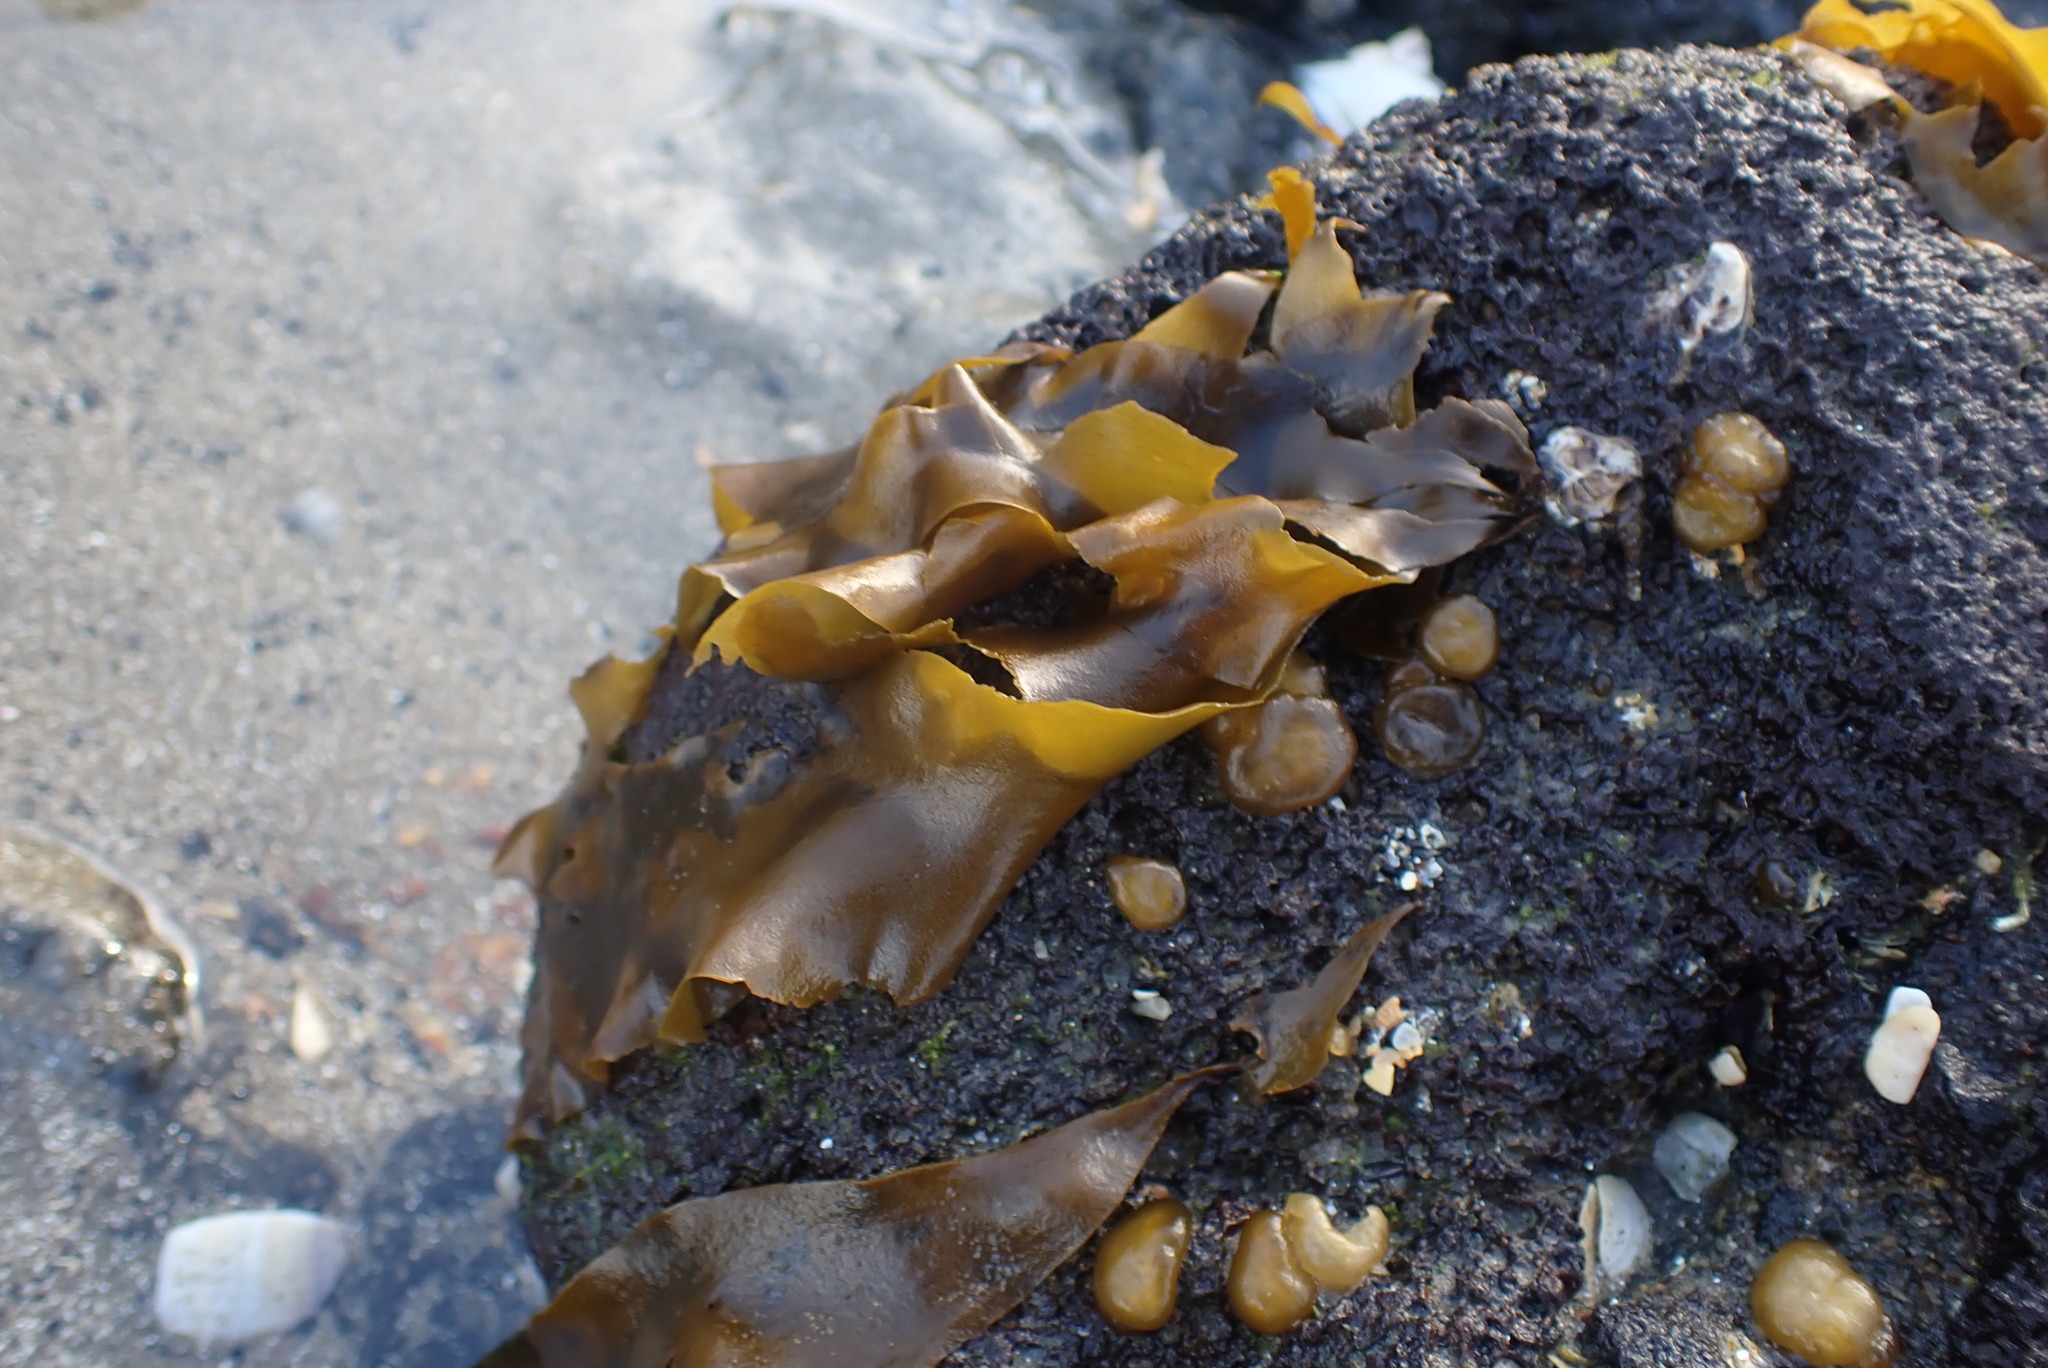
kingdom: Chromista
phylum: Ochrophyta
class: Phaeophyceae
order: Scytosiphonales
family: Scytosiphonaceae
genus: Petalonia
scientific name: Petalonia binghamiae
